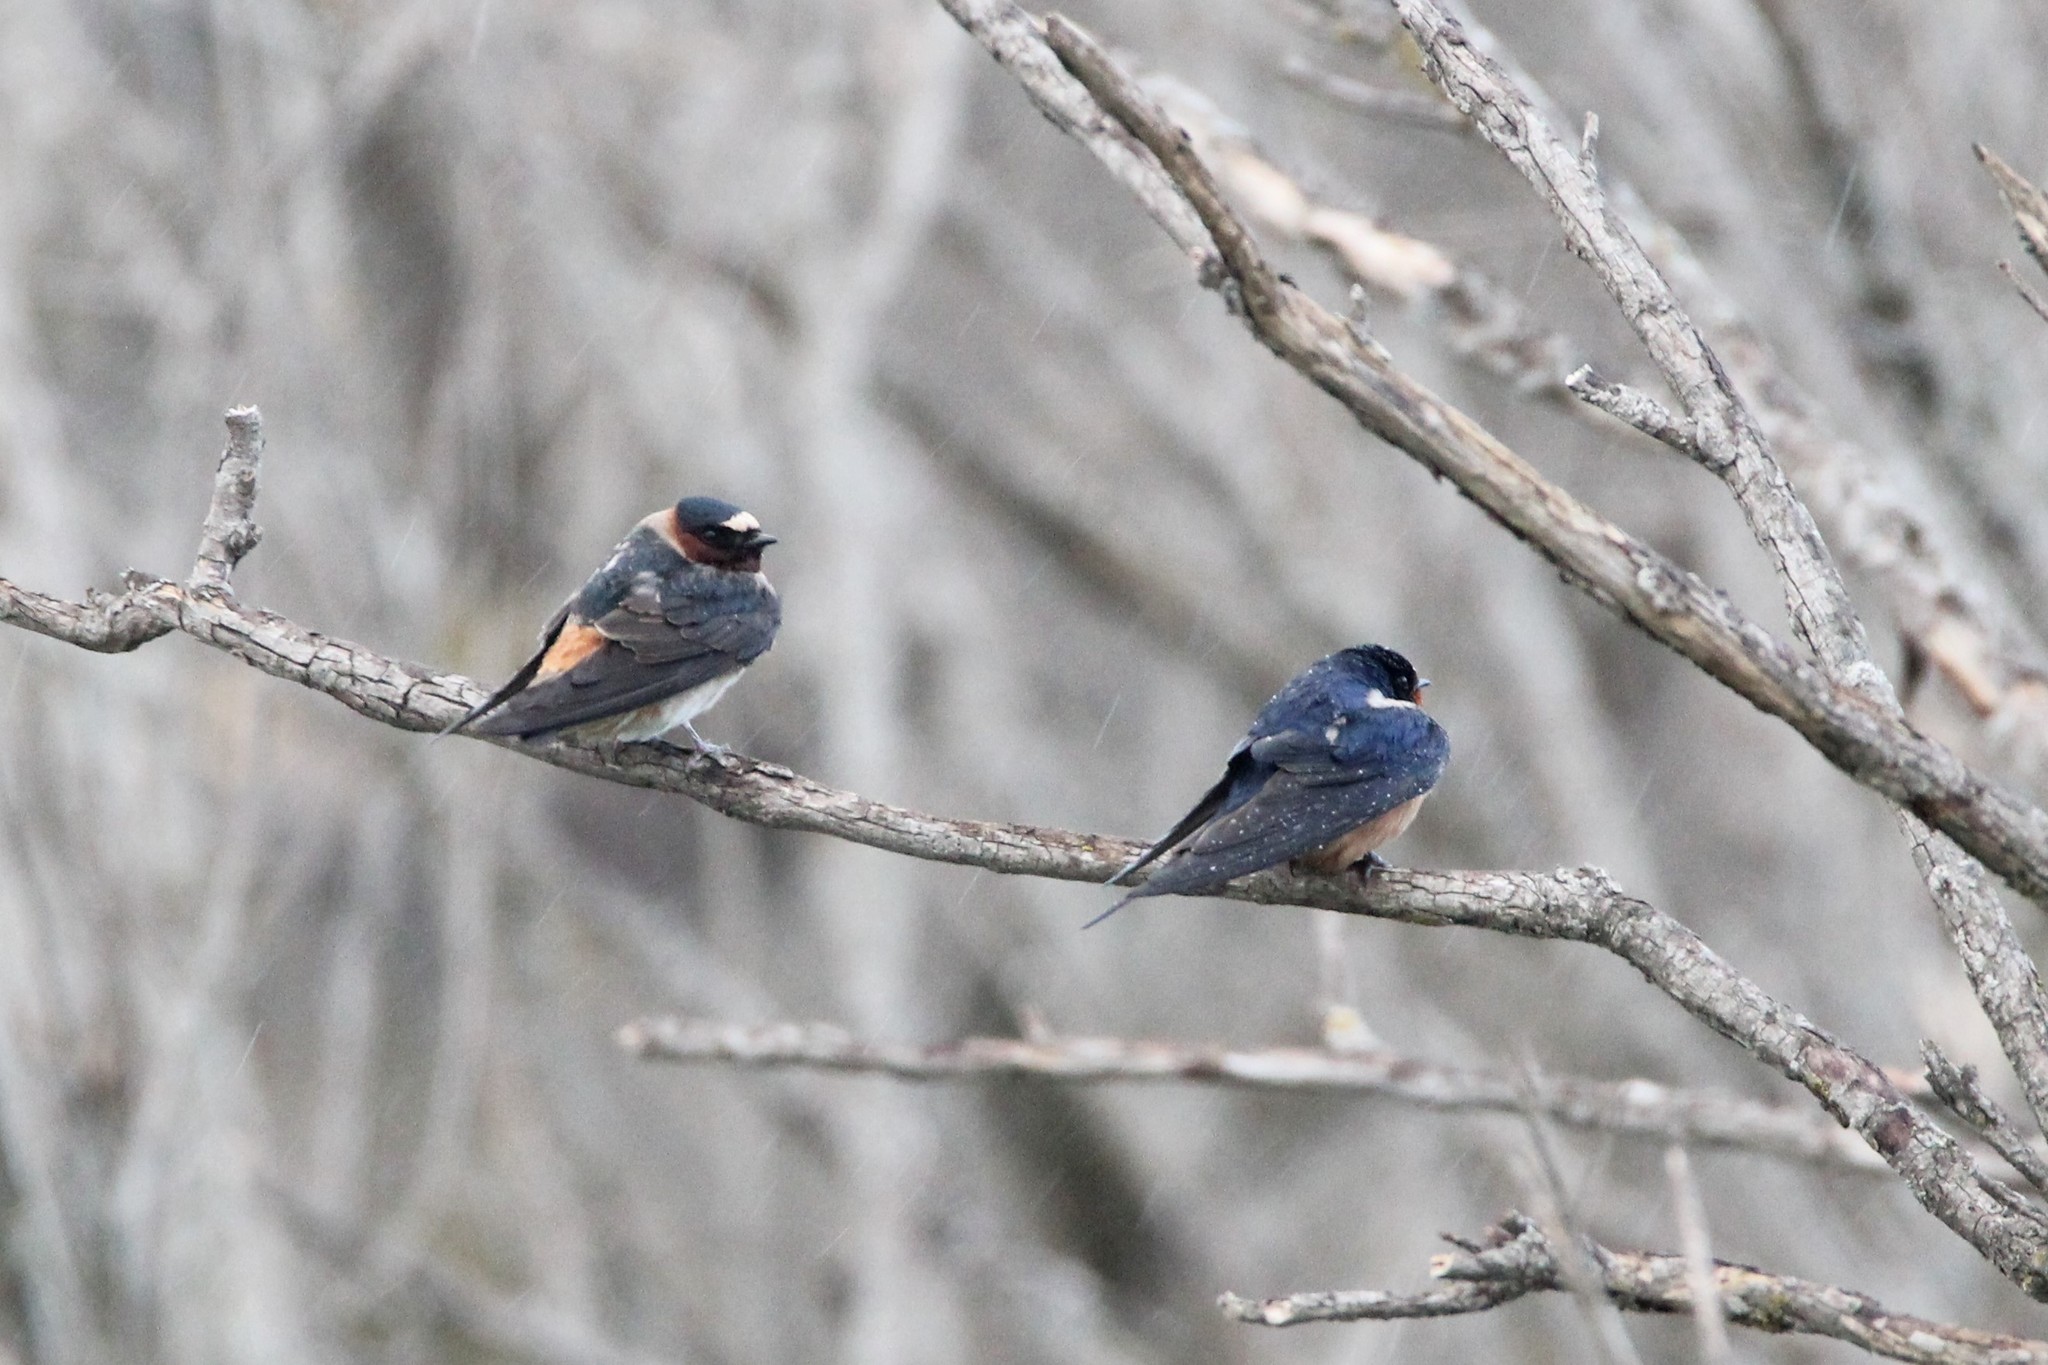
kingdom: Animalia
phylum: Chordata
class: Aves
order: Passeriformes
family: Hirundinidae
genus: Petrochelidon
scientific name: Petrochelidon pyrrhonota
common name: American cliff swallow
